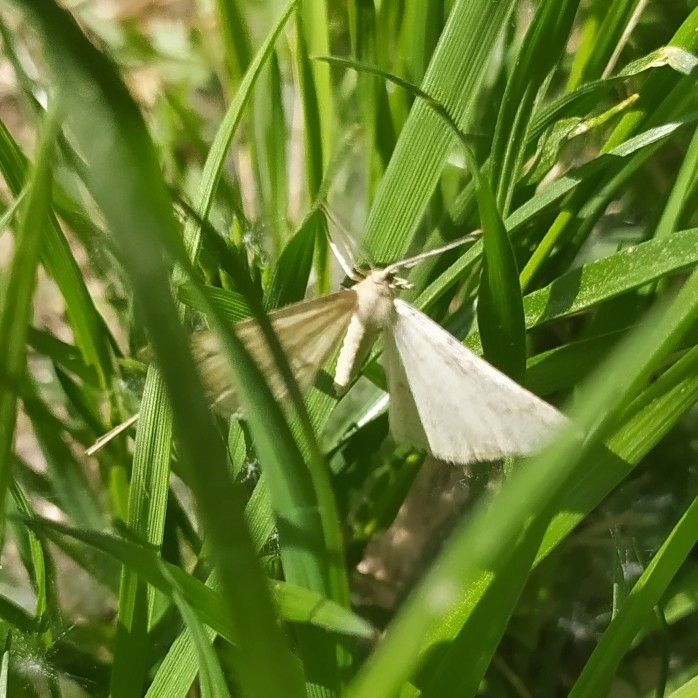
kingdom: Animalia
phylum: Arthropoda
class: Insecta
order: Lepidoptera
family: Geometridae
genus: Hypoxystis
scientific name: Hypoxystis pluviaria
